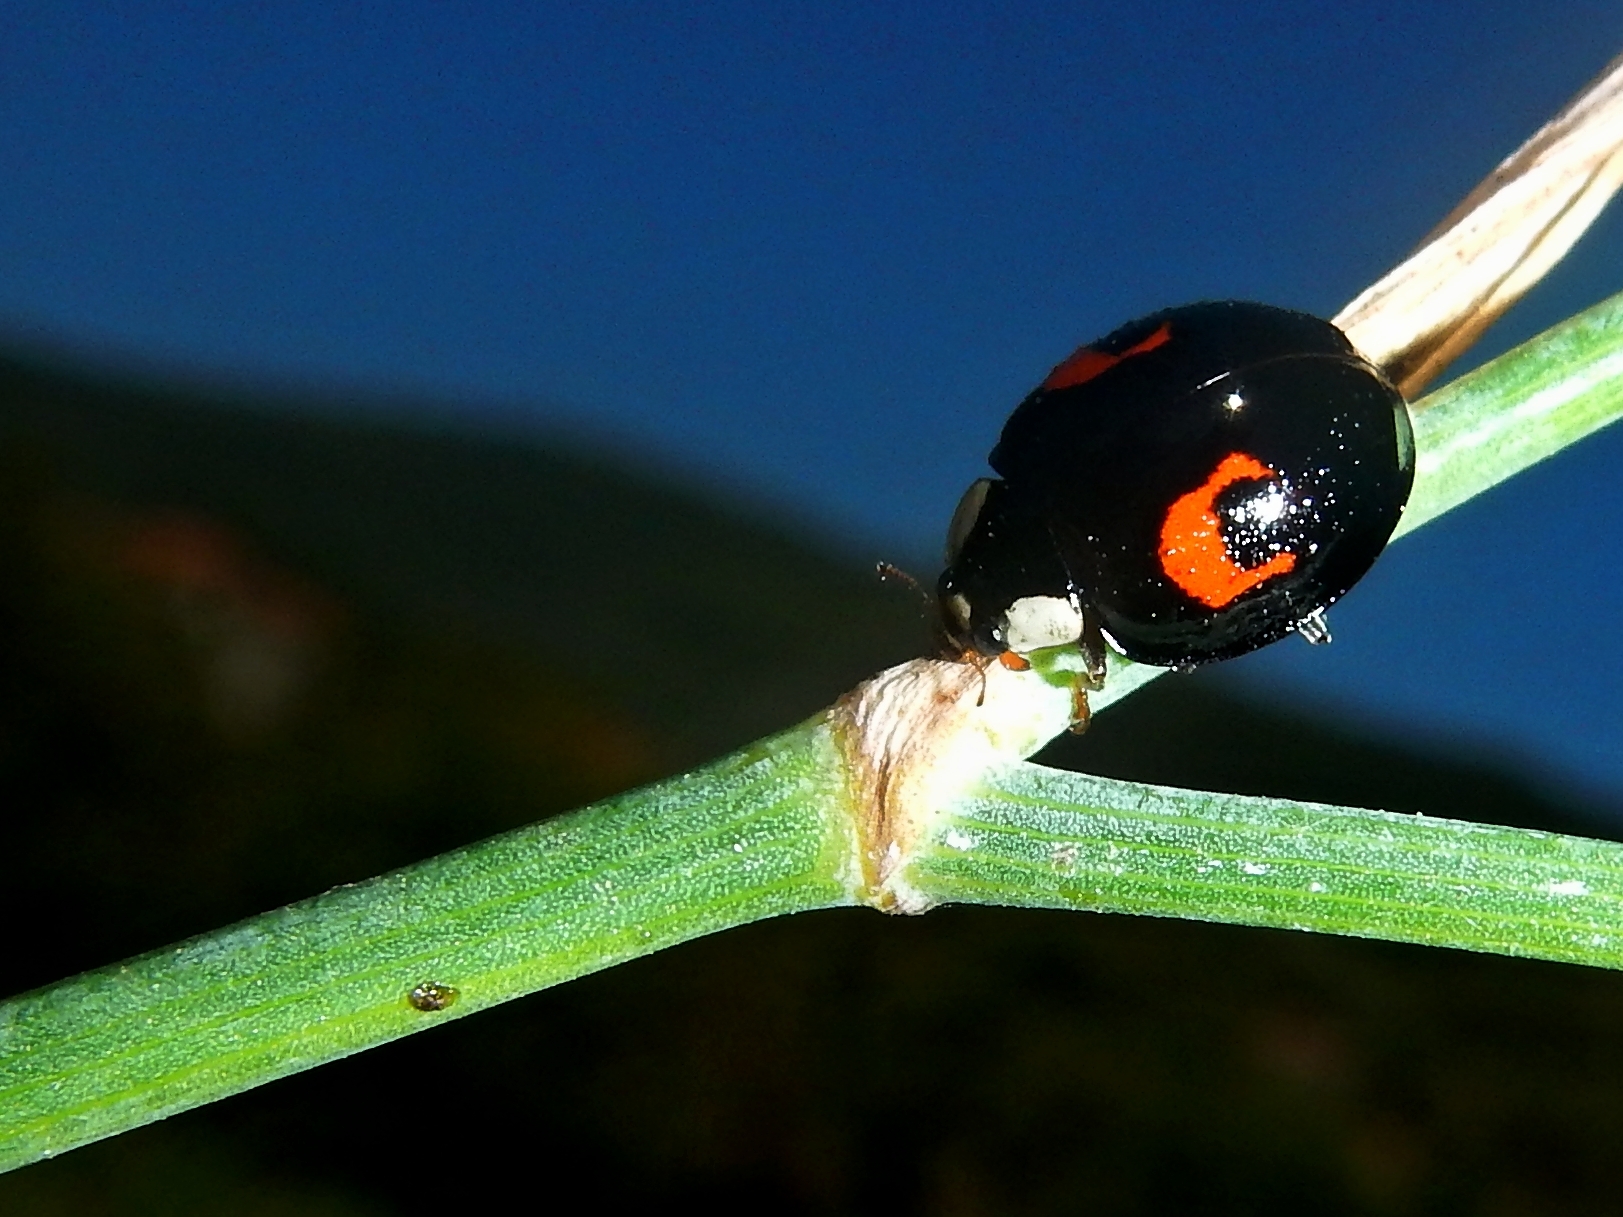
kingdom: Animalia
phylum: Arthropoda
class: Insecta
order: Coleoptera
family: Coccinellidae
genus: Harmonia
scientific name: Harmonia axyridis
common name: Harlequin ladybird
